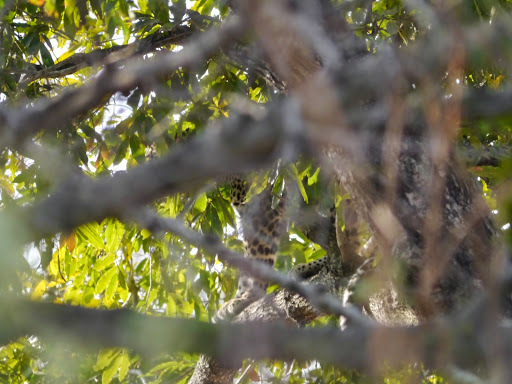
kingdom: Animalia
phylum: Chordata
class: Mammalia
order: Carnivora
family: Felidae
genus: Panthera
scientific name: Panthera pardus
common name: Leopard
